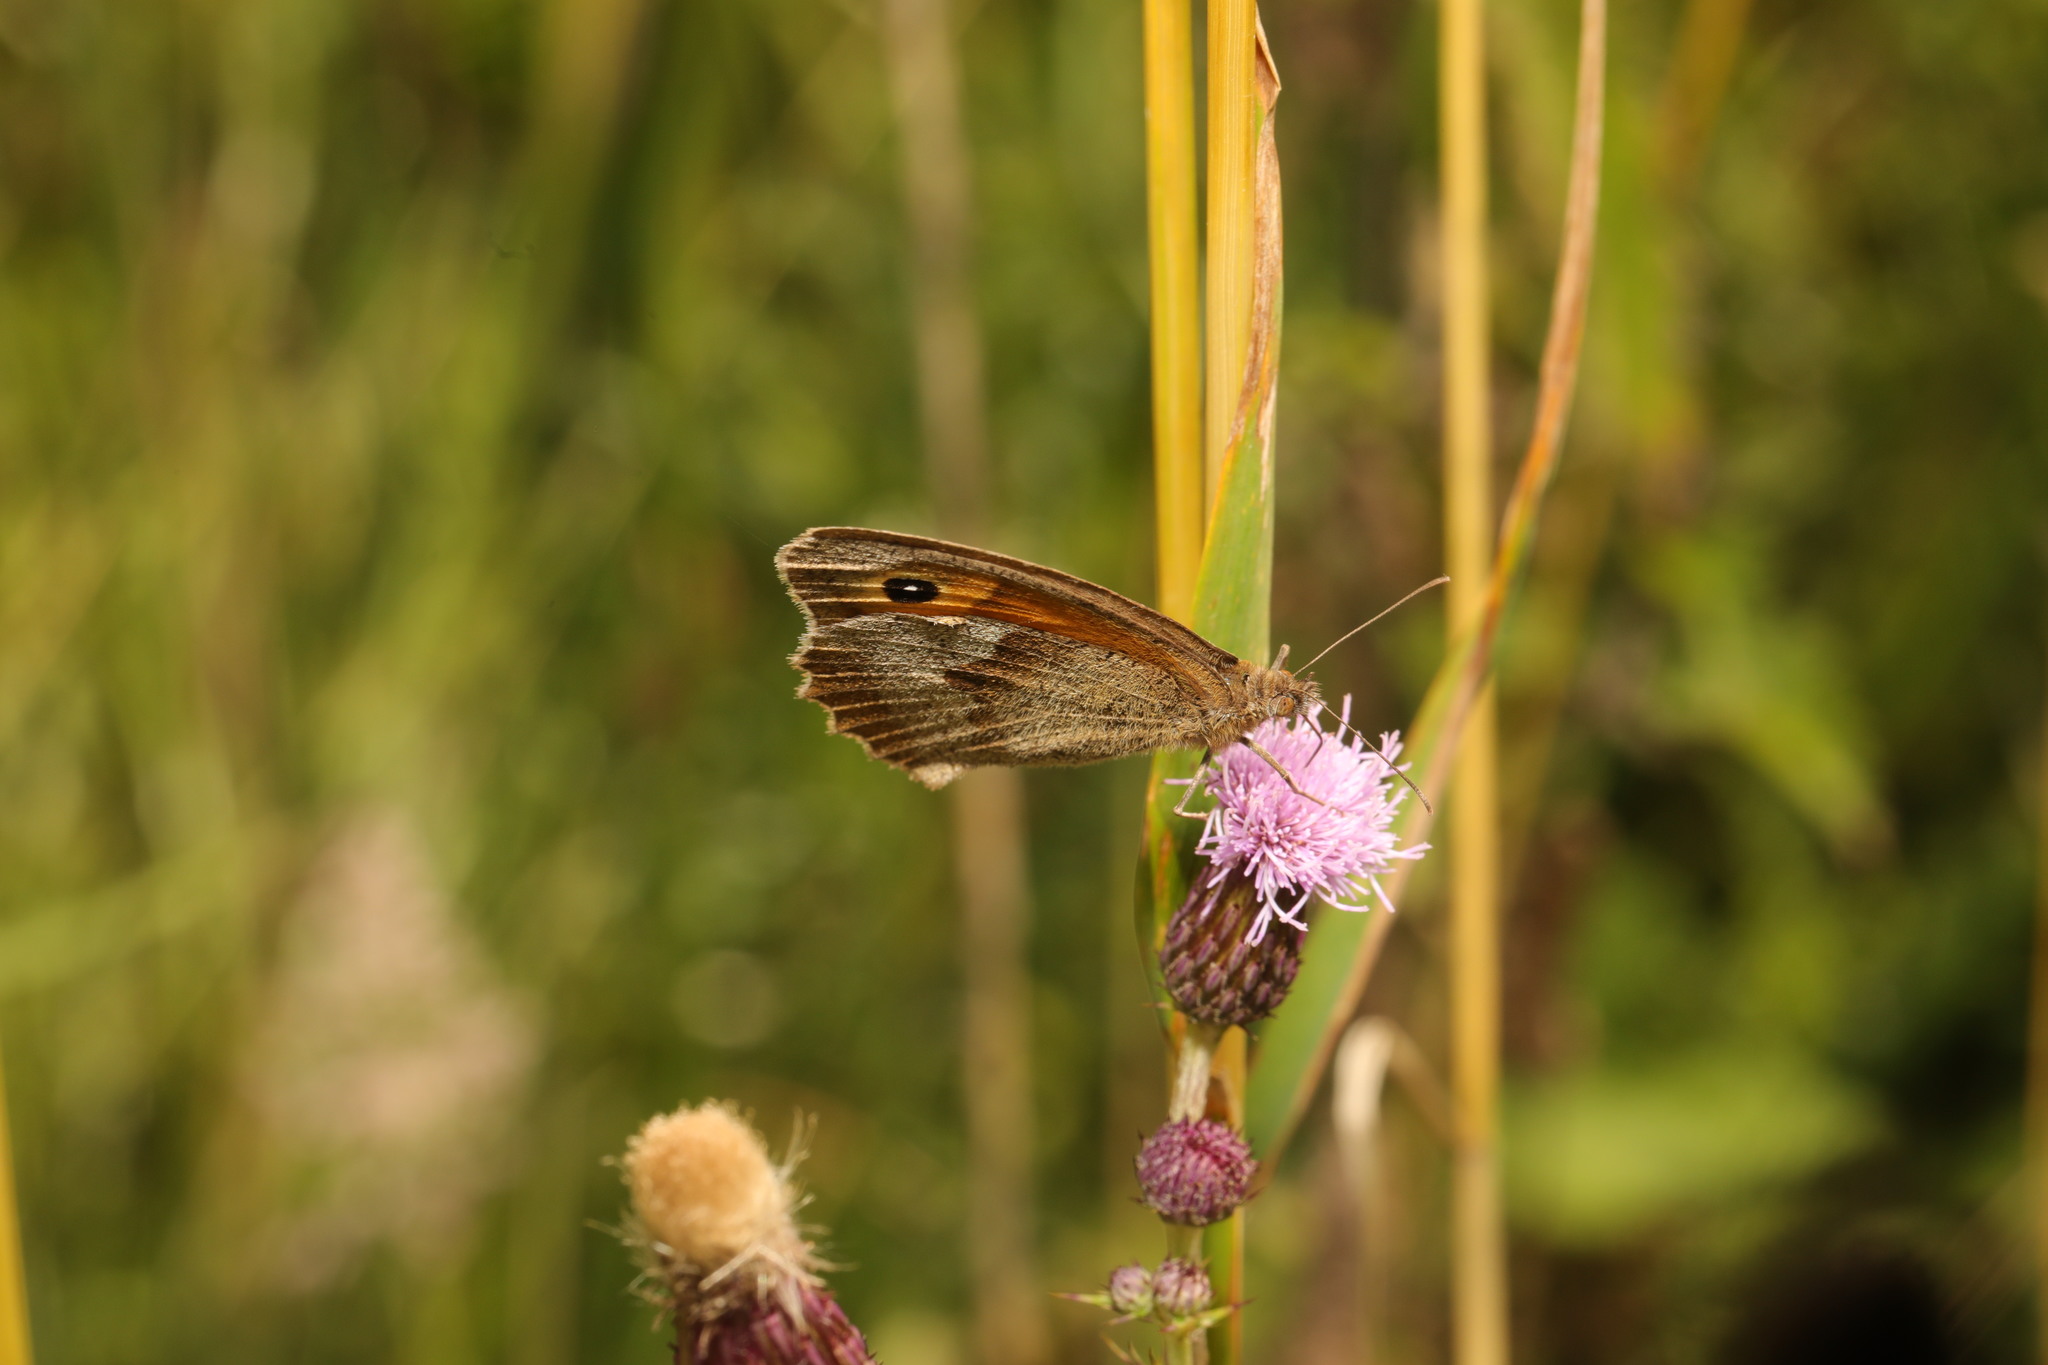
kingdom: Animalia
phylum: Arthropoda
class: Insecta
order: Lepidoptera
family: Nymphalidae
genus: Maniola
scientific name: Maniola jurtina
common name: Meadow brown
